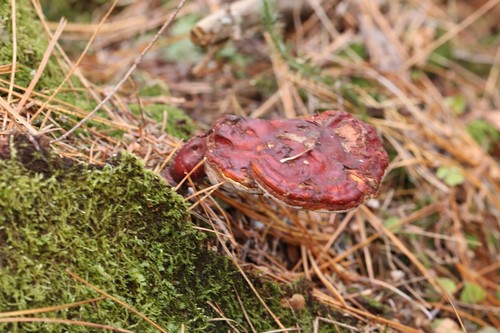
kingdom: Fungi
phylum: Basidiomycota
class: Agaricomycetes
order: Polyporales
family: Polyporaceae
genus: Ganoderma
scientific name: Ganoderma lucidum
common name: Lacquered bracket
